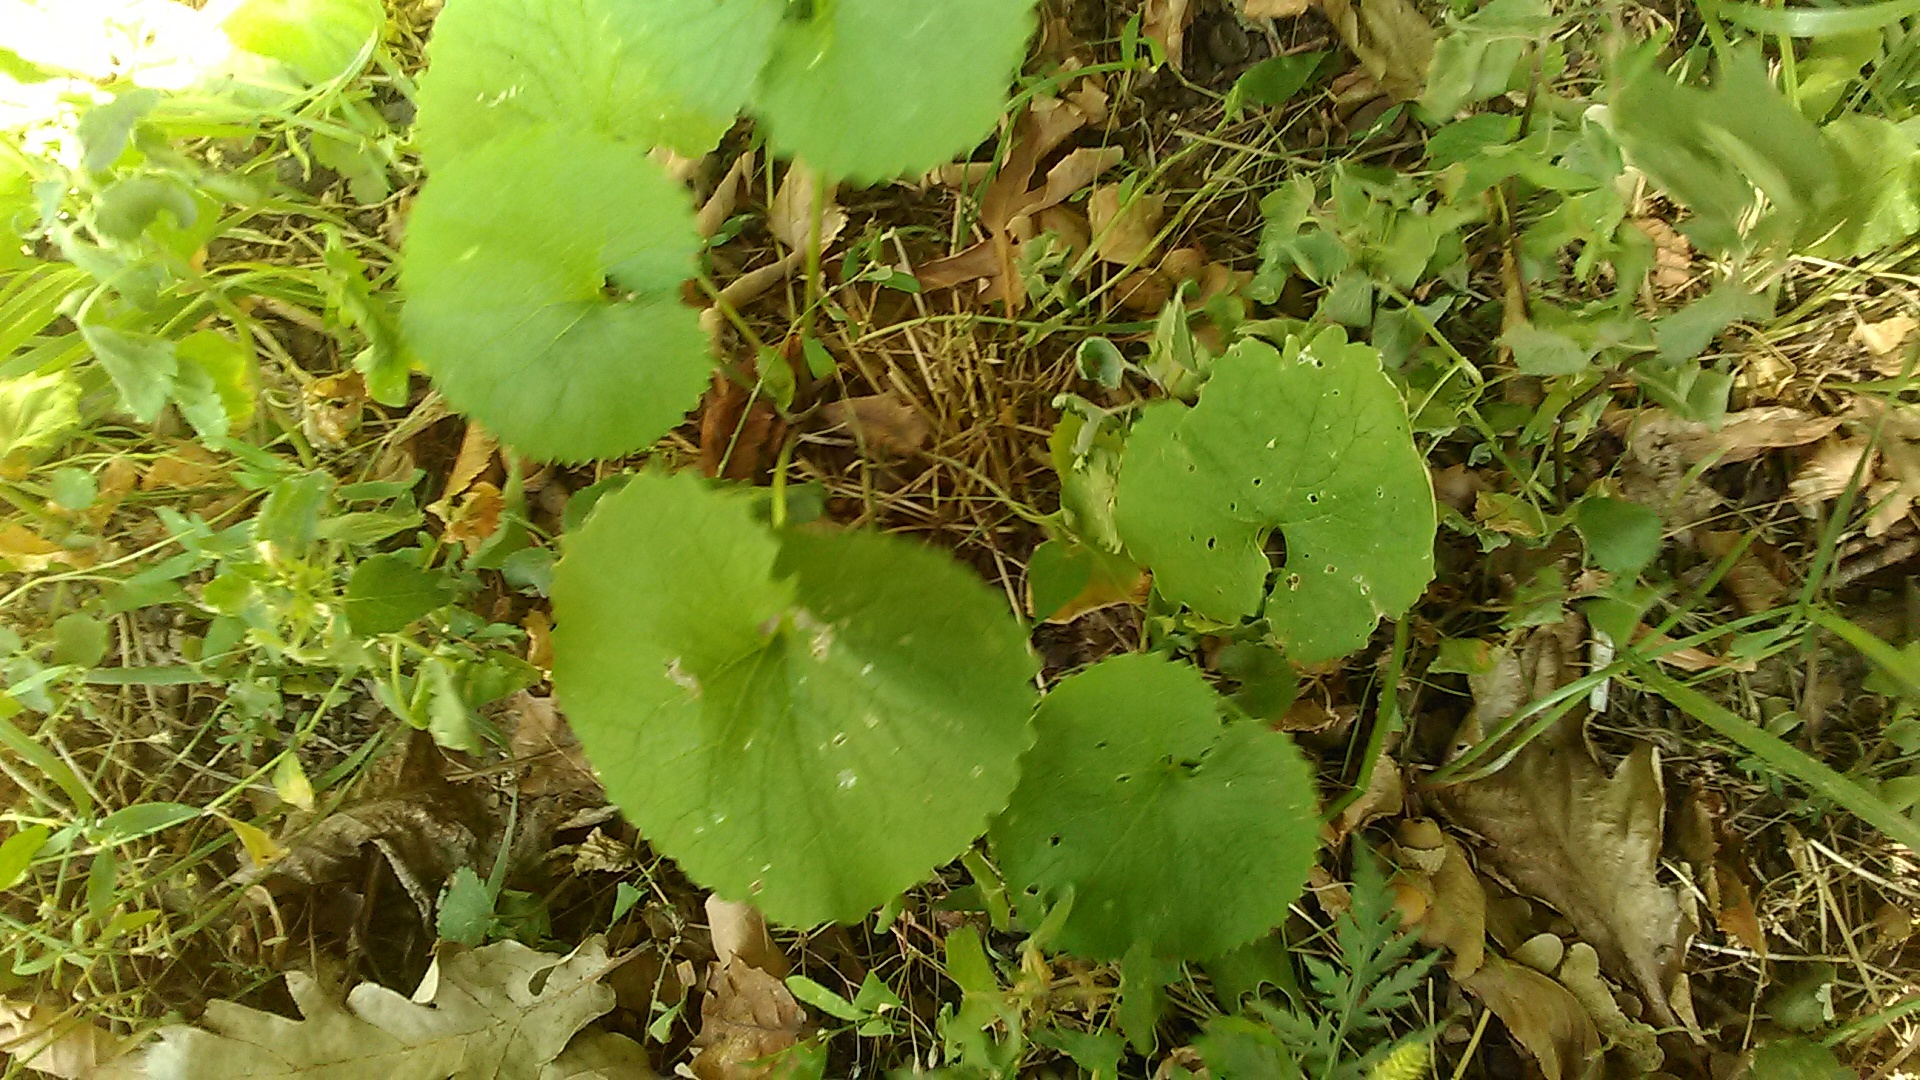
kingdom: Plantae
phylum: Tracheophyta
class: Magnoliopsida
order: Brassicales
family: Brassicaceae
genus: Alliaria
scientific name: Alliaria petiolata
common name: Garlic mustard
